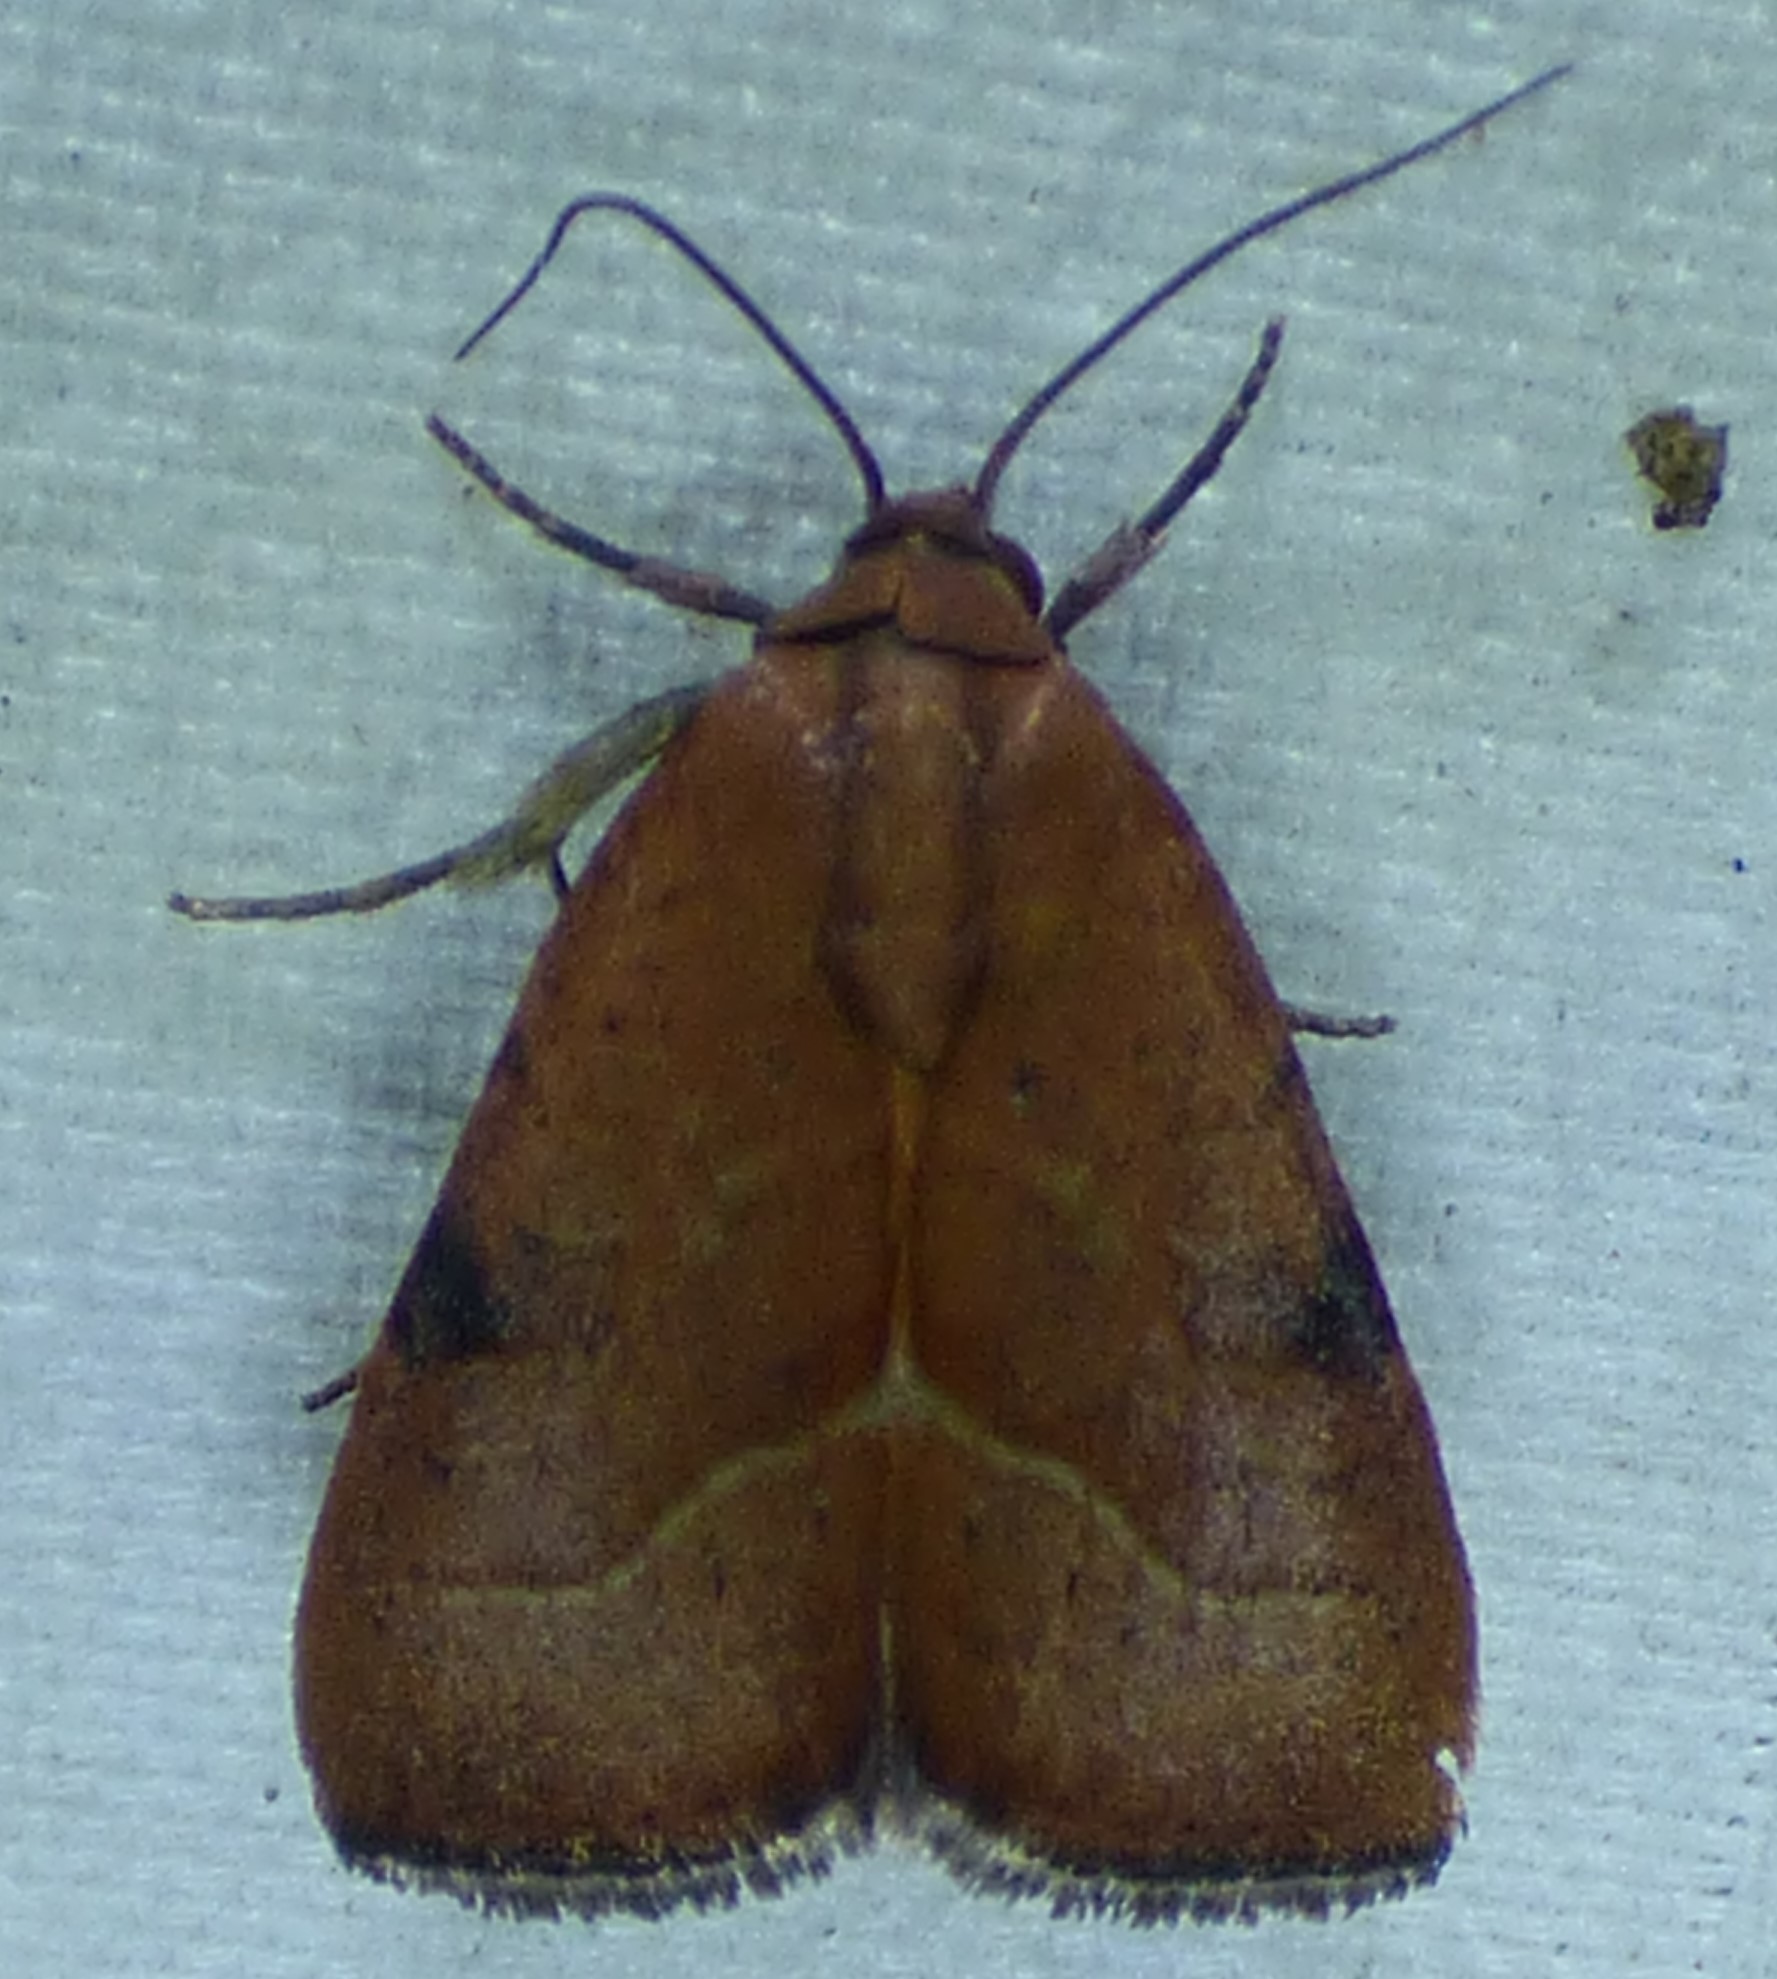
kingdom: Animalia
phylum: Arthropoda
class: Insecta
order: Lepidoptera
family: Noctuidae
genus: Galgula
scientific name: Galgula partita
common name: Wedgeling
